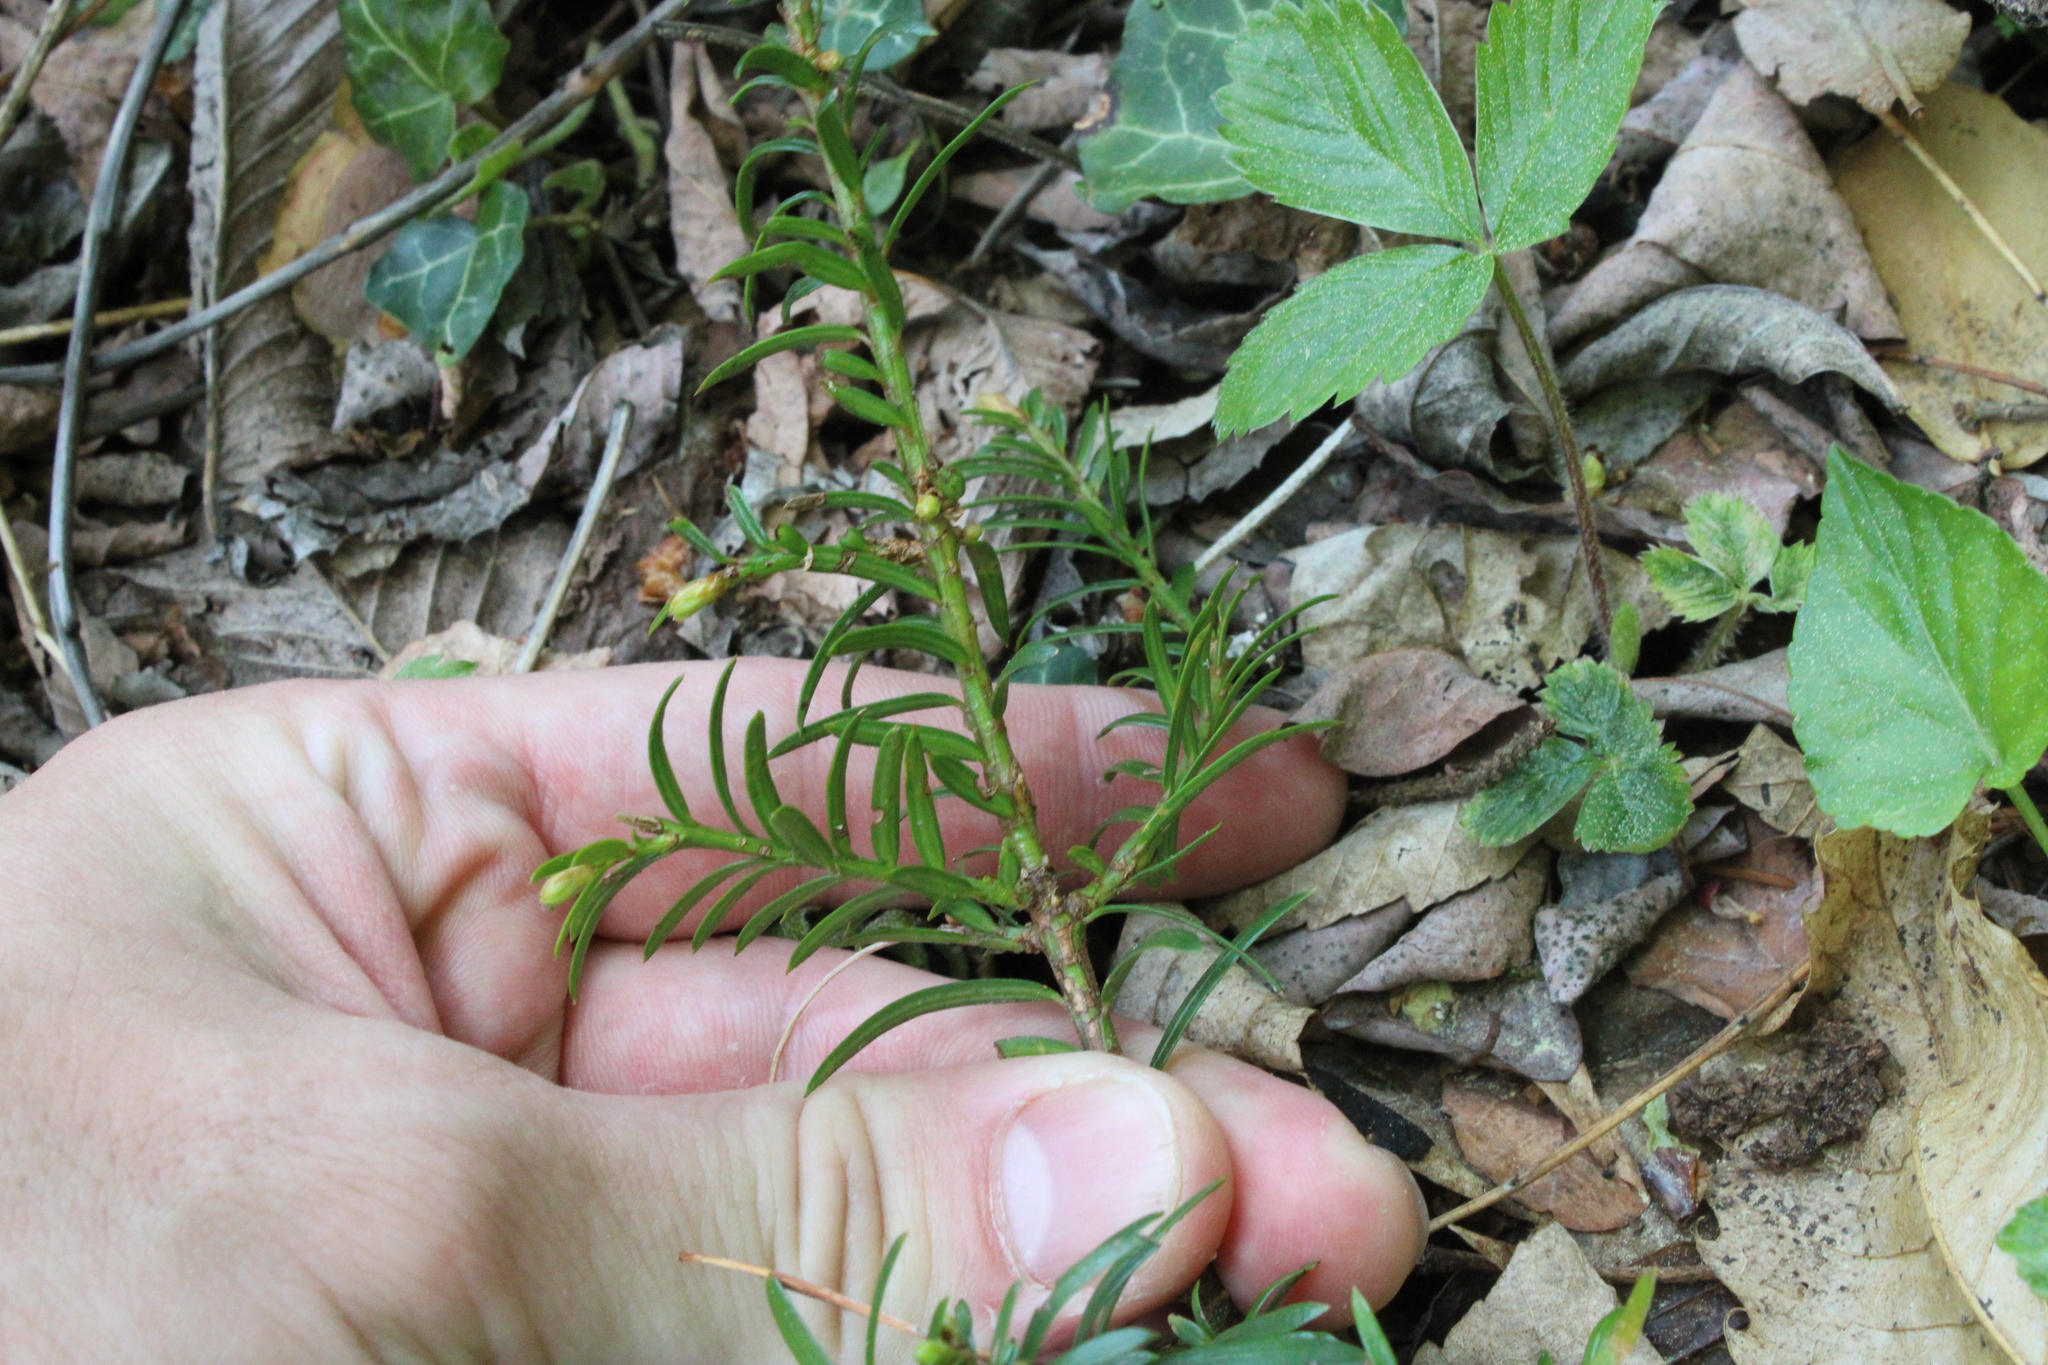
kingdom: Plantae
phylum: Tracheophyta
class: Pinopsida
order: Pinales
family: Taxaceae
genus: Taxus
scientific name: Taxus baccata
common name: Yew
